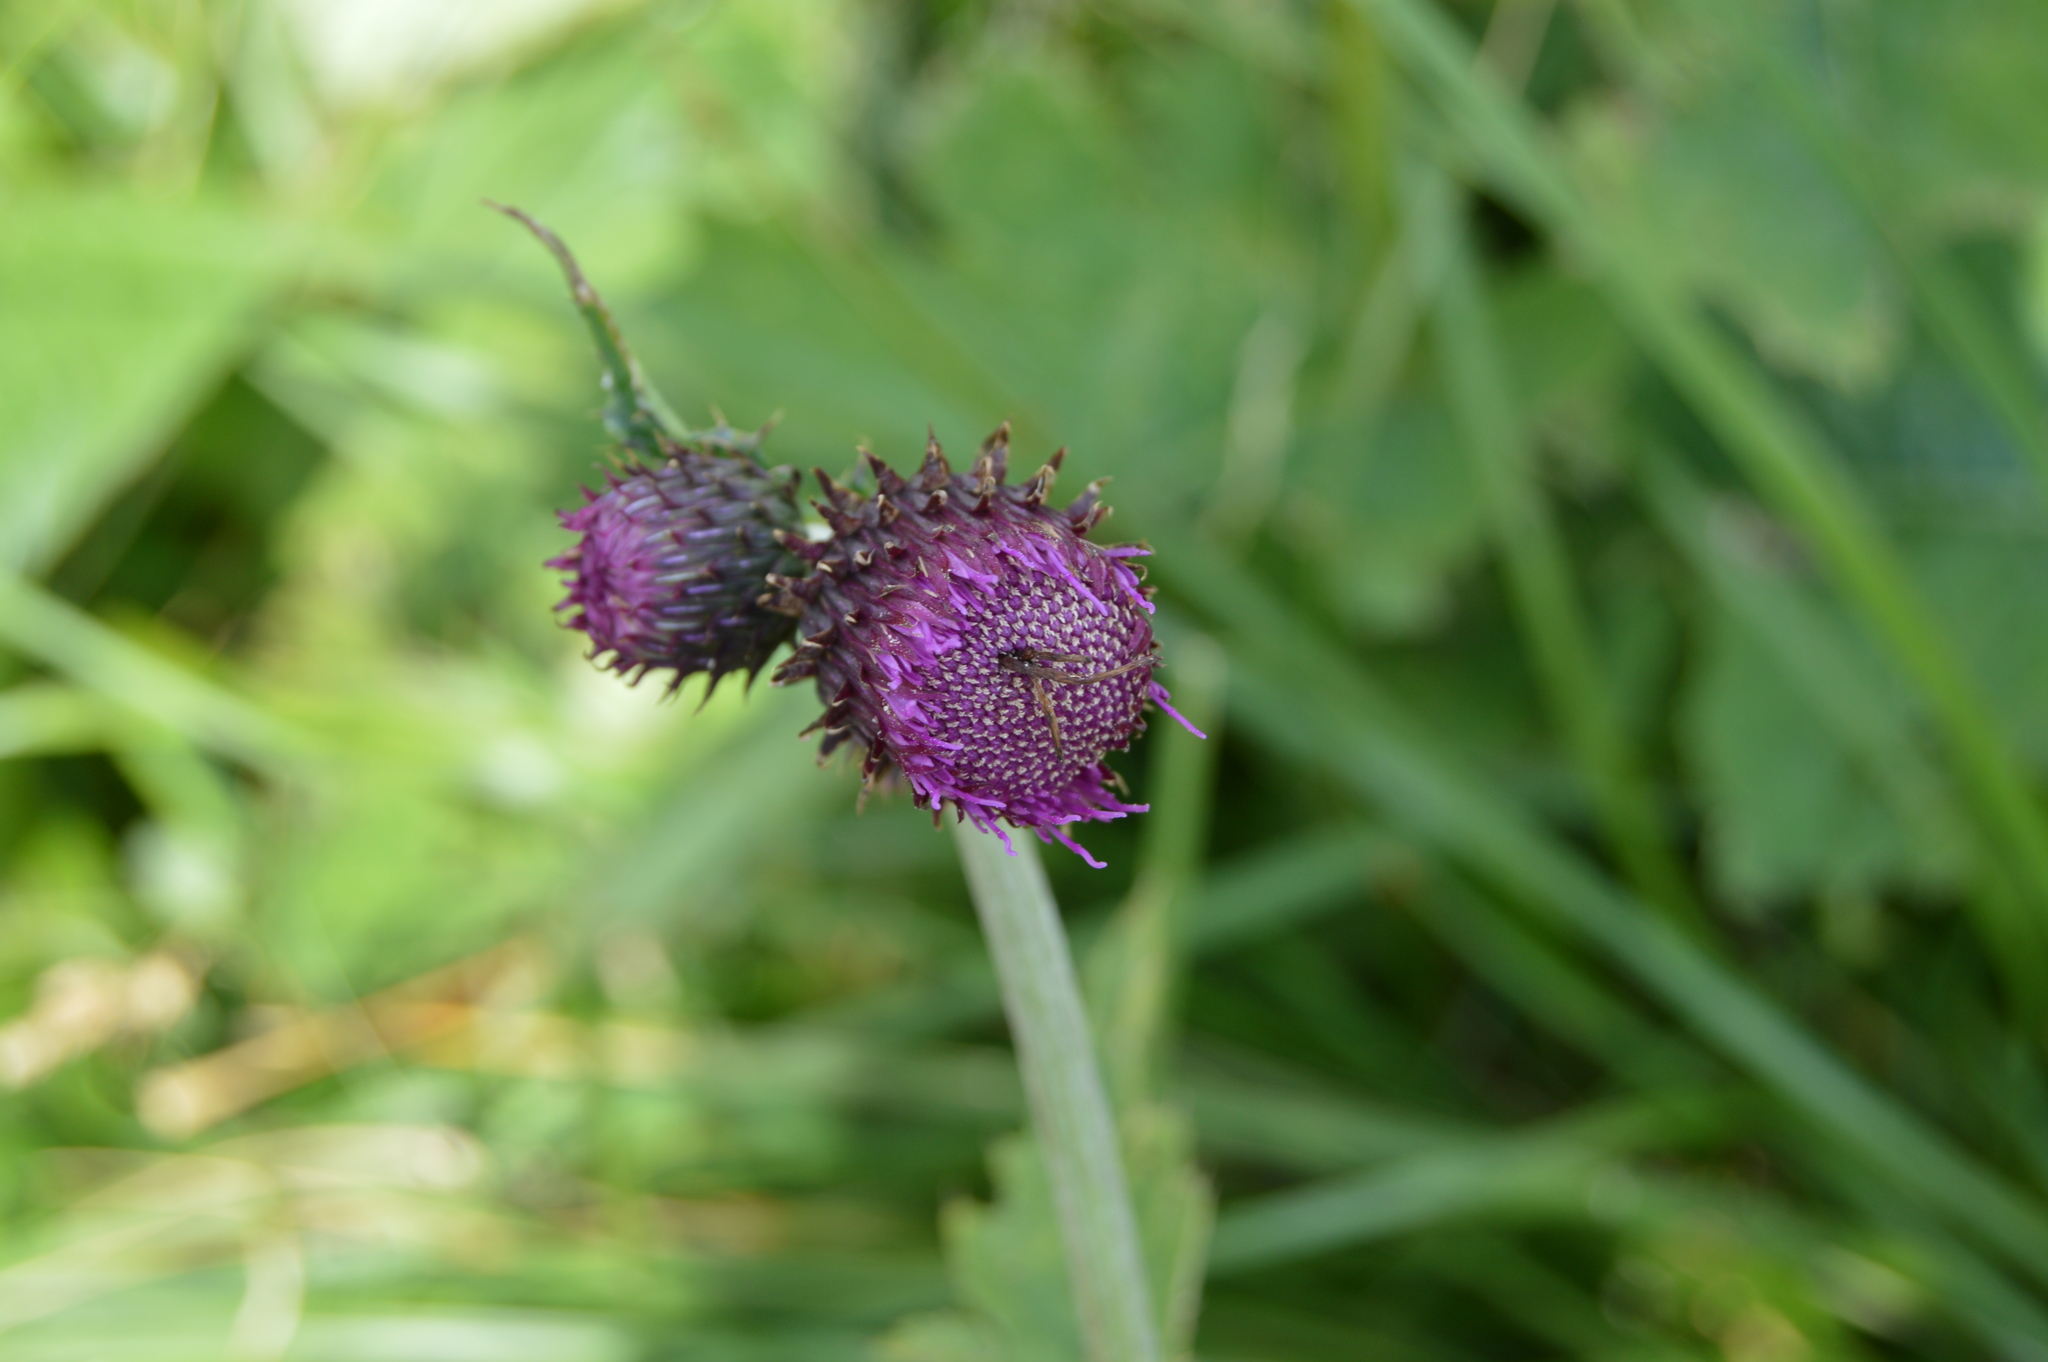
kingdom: Plantae
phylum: Tracheophyta
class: Magnoliopsida
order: Asterales
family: Asteraceae
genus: Cirsium
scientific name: Cirsium waldsteinii
